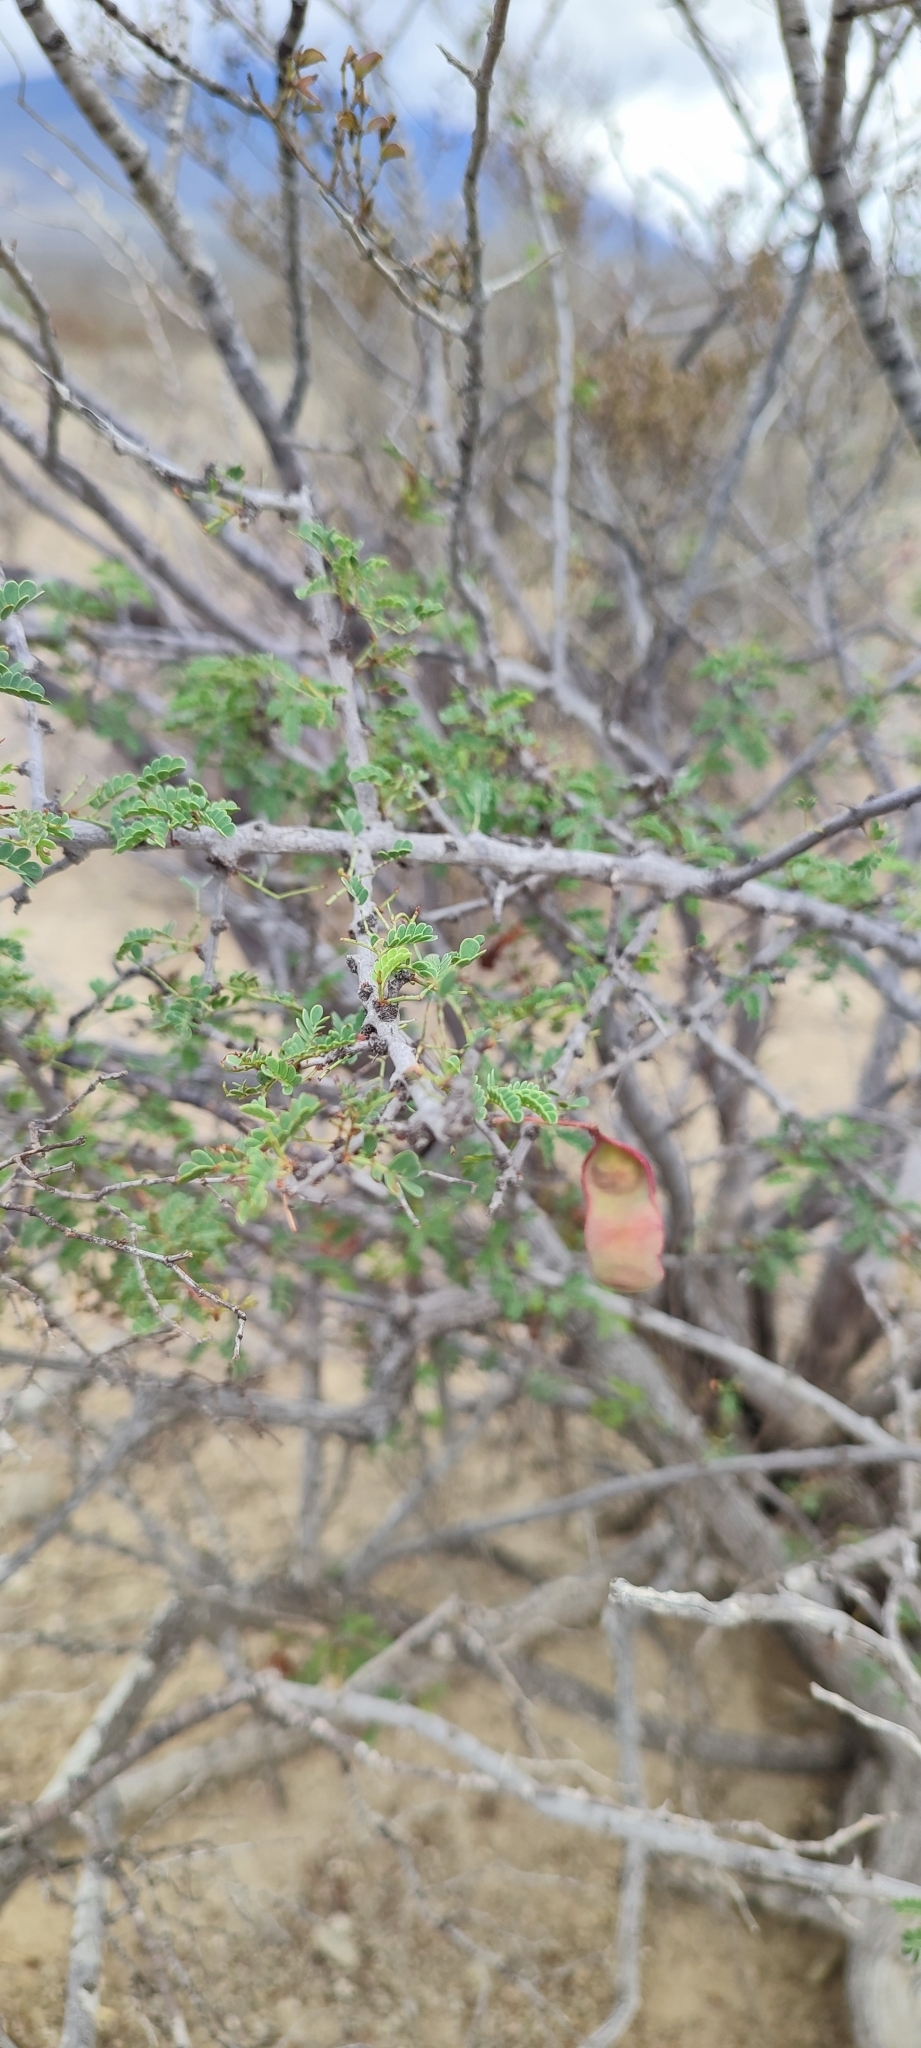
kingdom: Plantae
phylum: Tracheophyta
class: Magnoliopsida
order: Fabales
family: Fabaceae
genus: Senegalia
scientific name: Senegalia wrightii
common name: Texas cat's-claw
